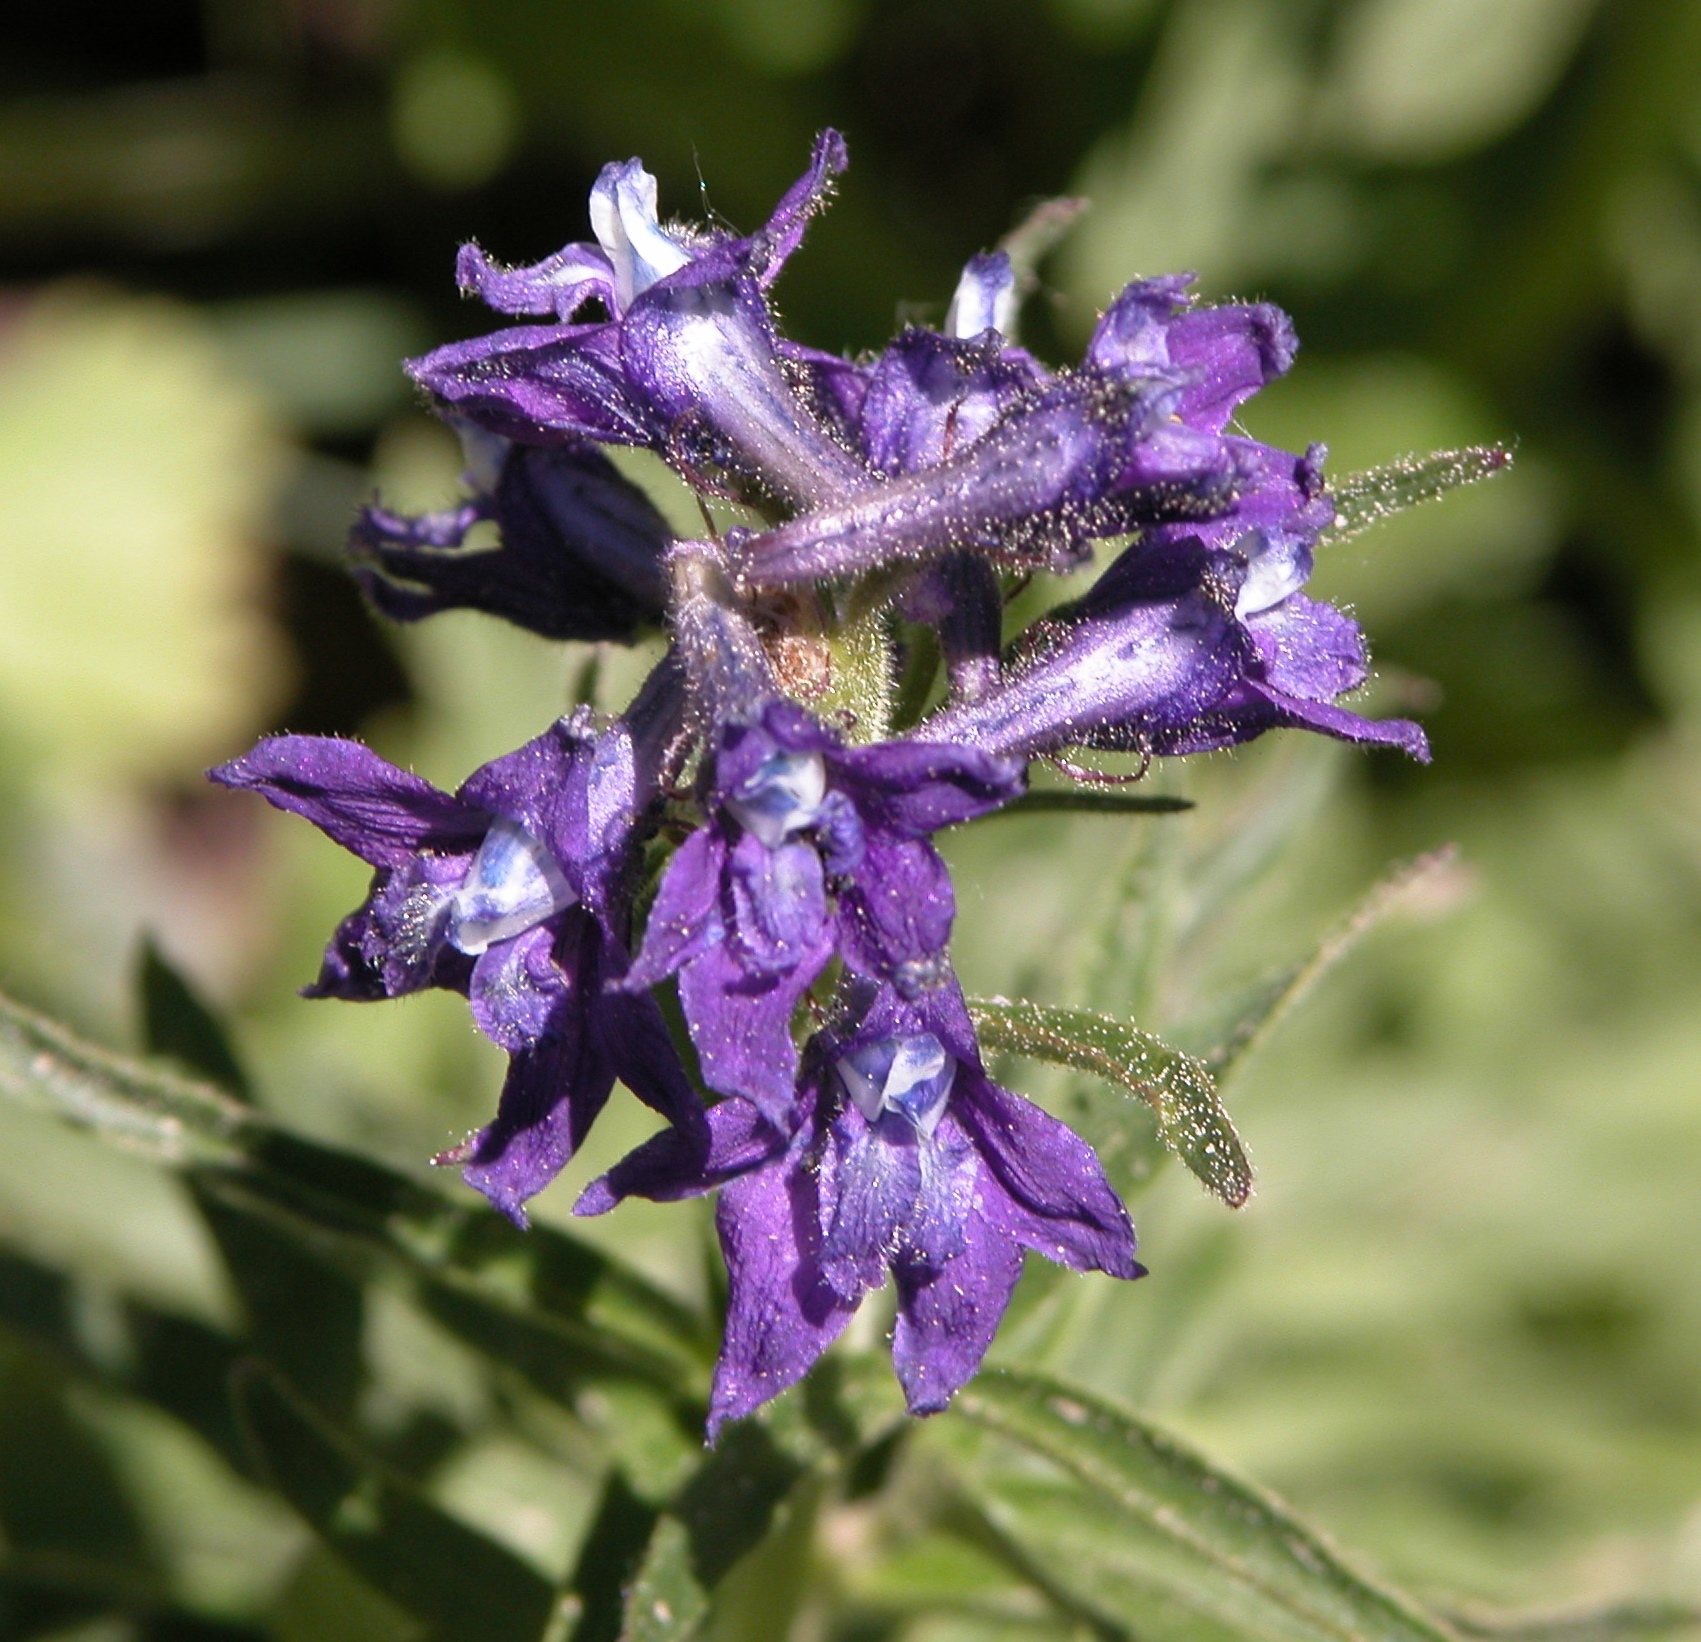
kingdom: Plantae
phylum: Tracheophyta
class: Magnoliopsida
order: Ranunculales
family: Ranunculaceae
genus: Delphinium
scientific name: Delphinium barbeyi
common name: Subalpine larkspur
